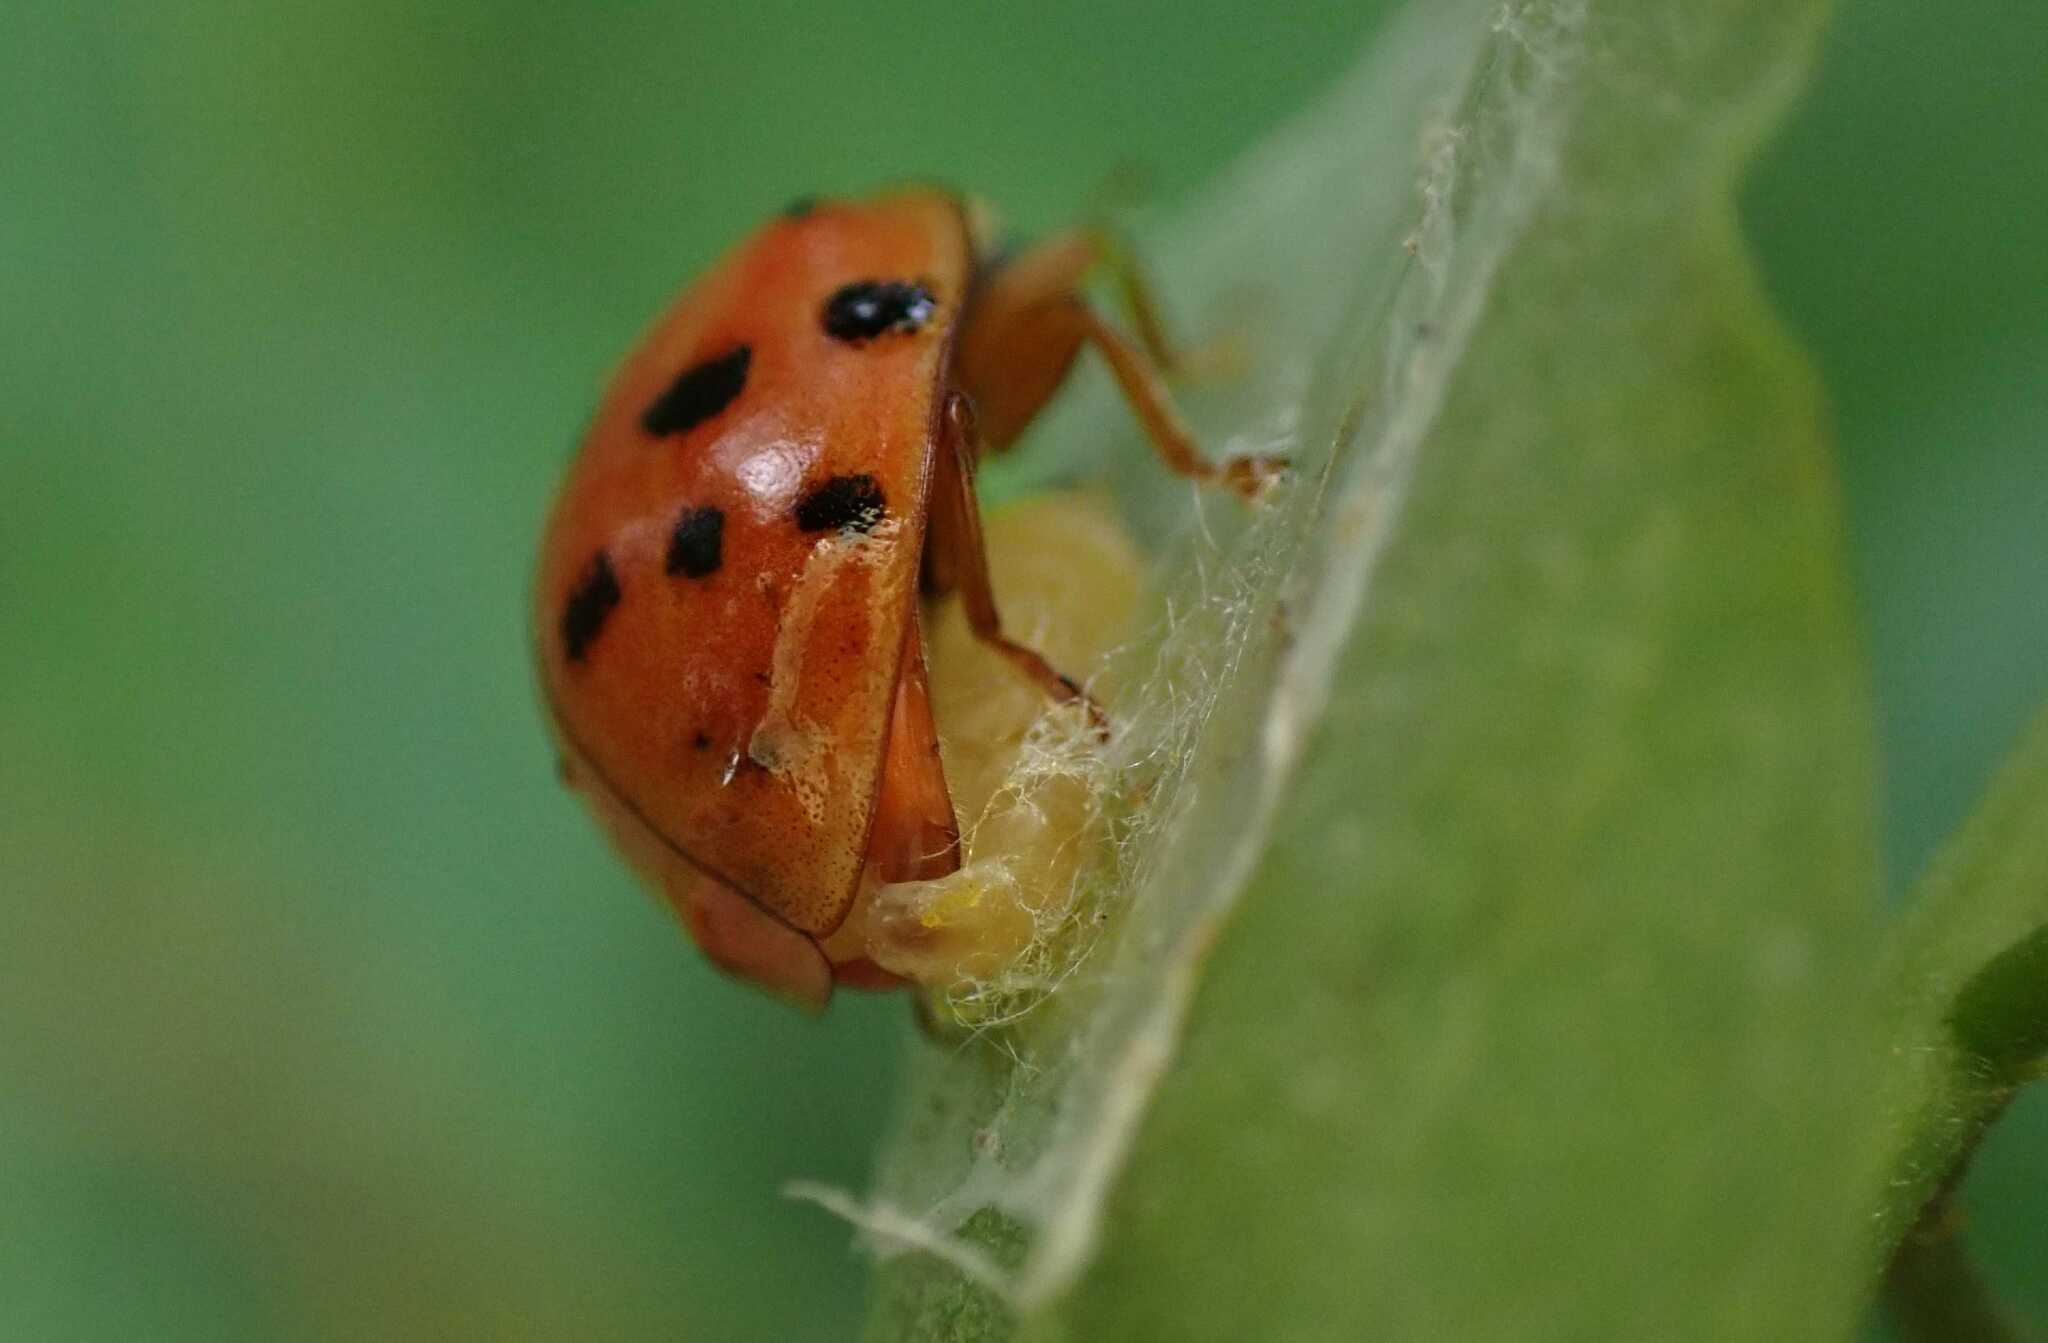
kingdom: Animalia
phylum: Arthropoda
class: Insecta
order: Hymenoptera
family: Braconidae
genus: Dinocampus
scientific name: Dinocampus coccinellae
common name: Braconid wasp
